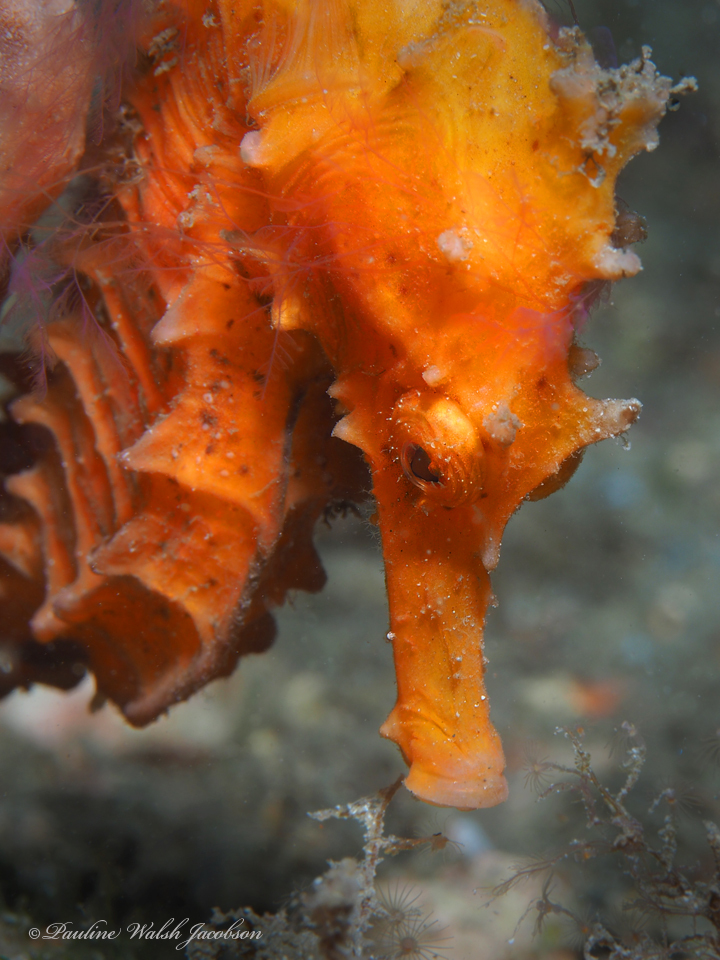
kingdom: Animalia
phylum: Chordata
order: Syngnathiformes
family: Syngnathidae
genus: Hippocampus
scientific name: Hippocampus erectus
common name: Lined seahorse
